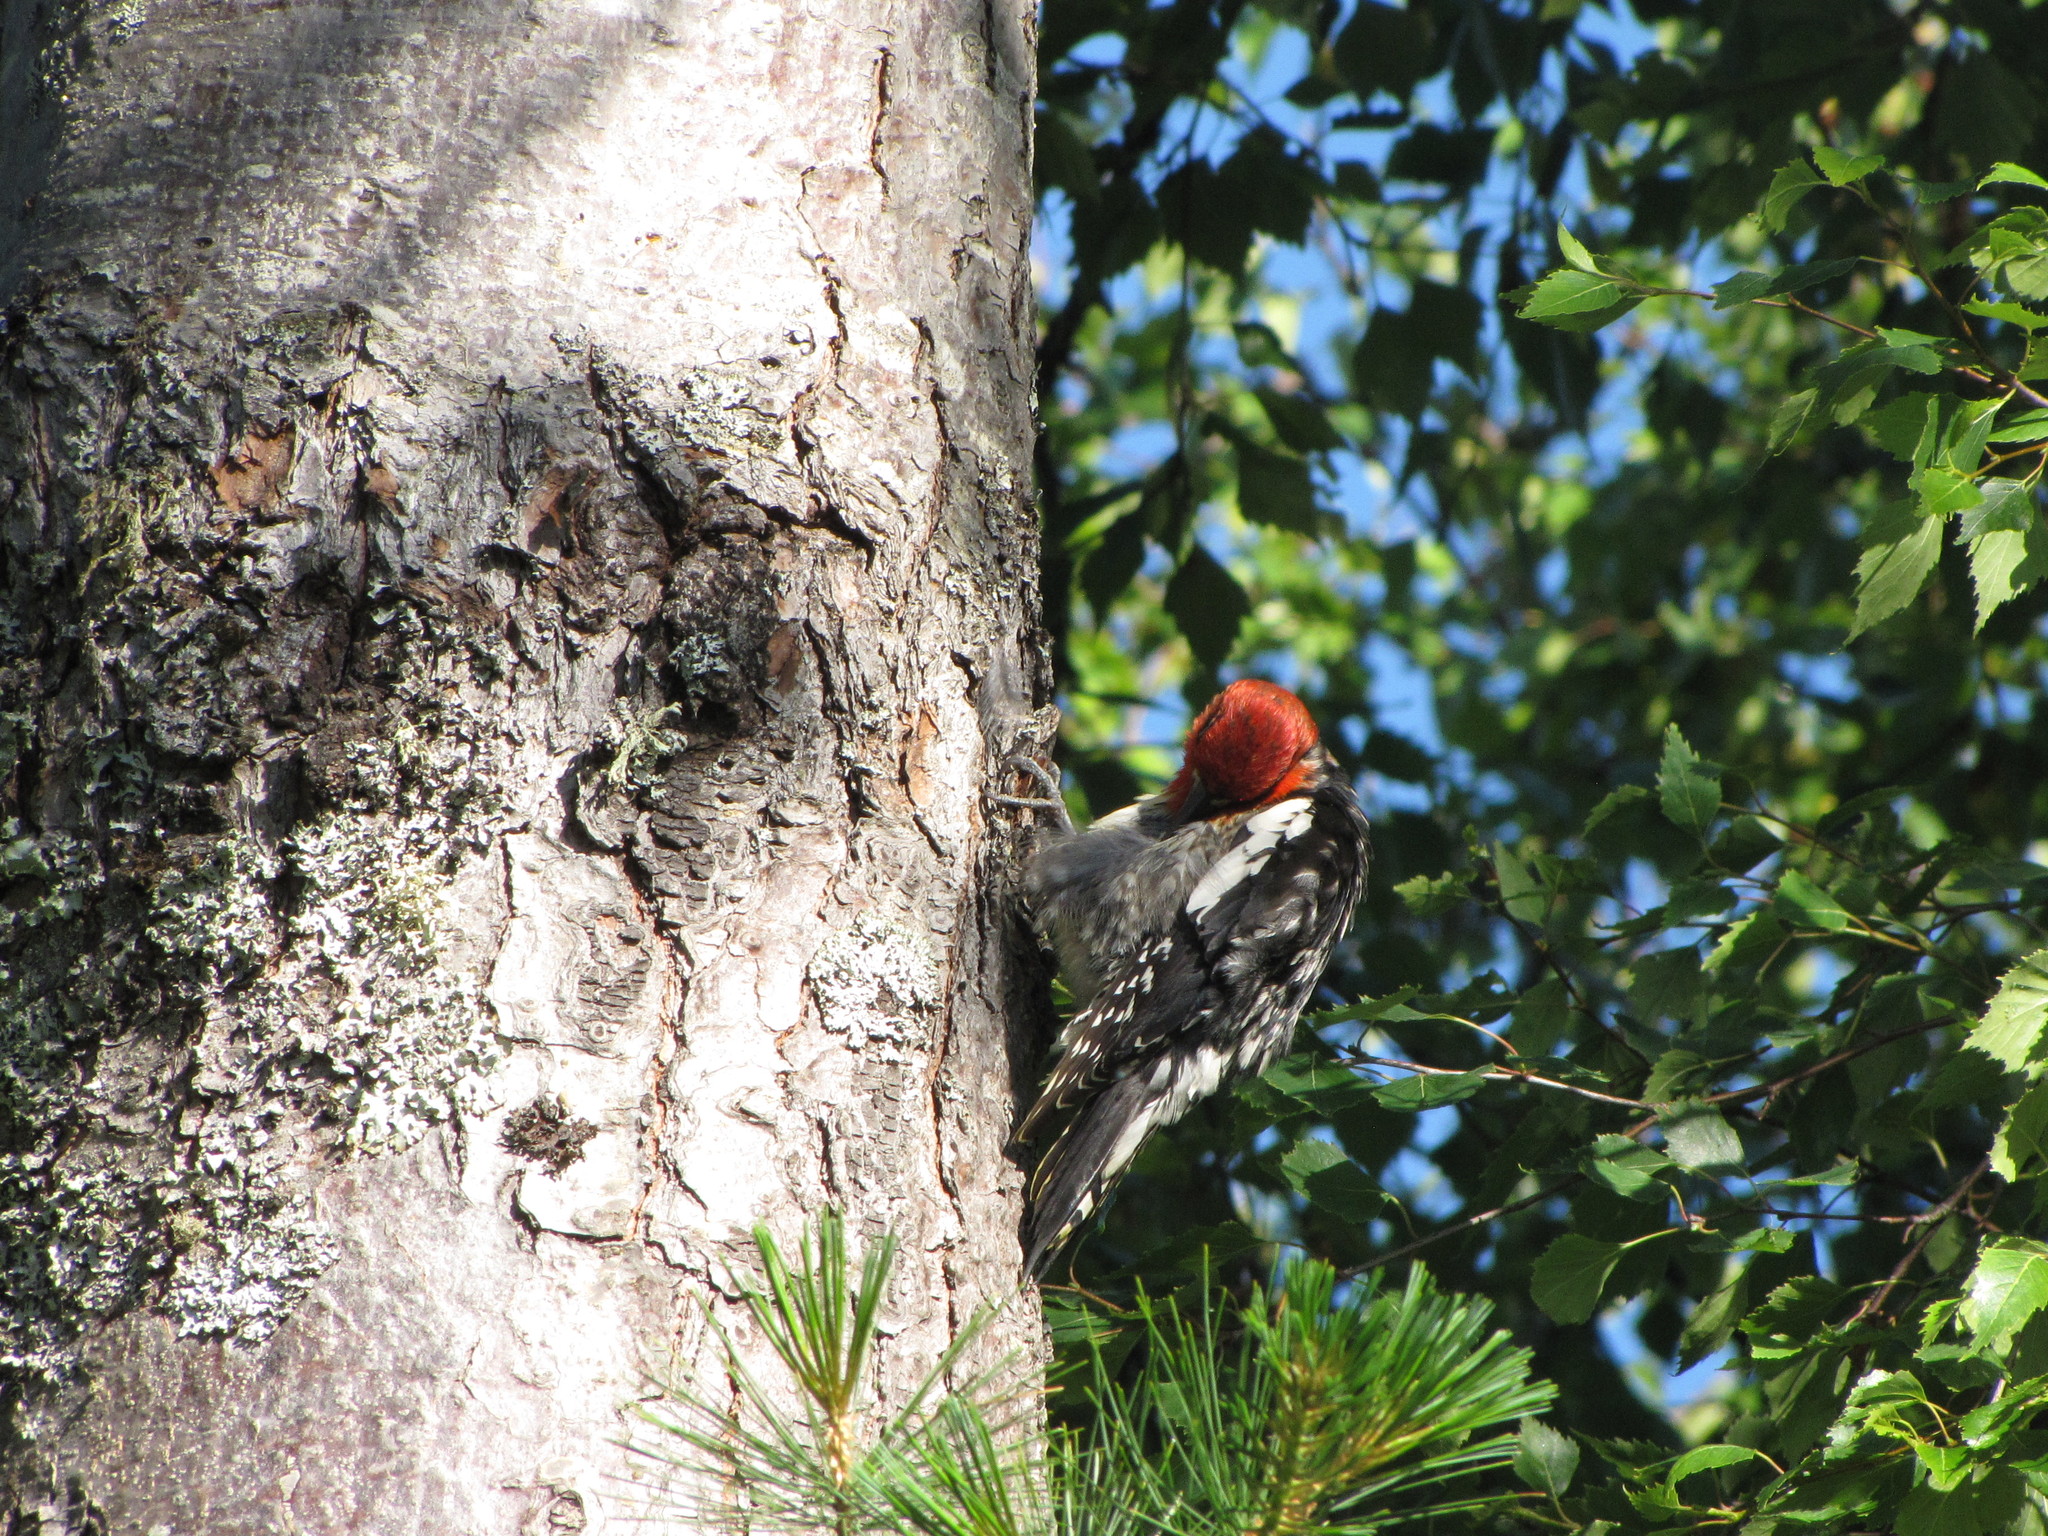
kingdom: Animalia
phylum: Chordata
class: Aves
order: Piciformes
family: Picidae
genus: Sphyrapicus
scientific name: Sphyrapicus ruber
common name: Red-breasted sapsucker
